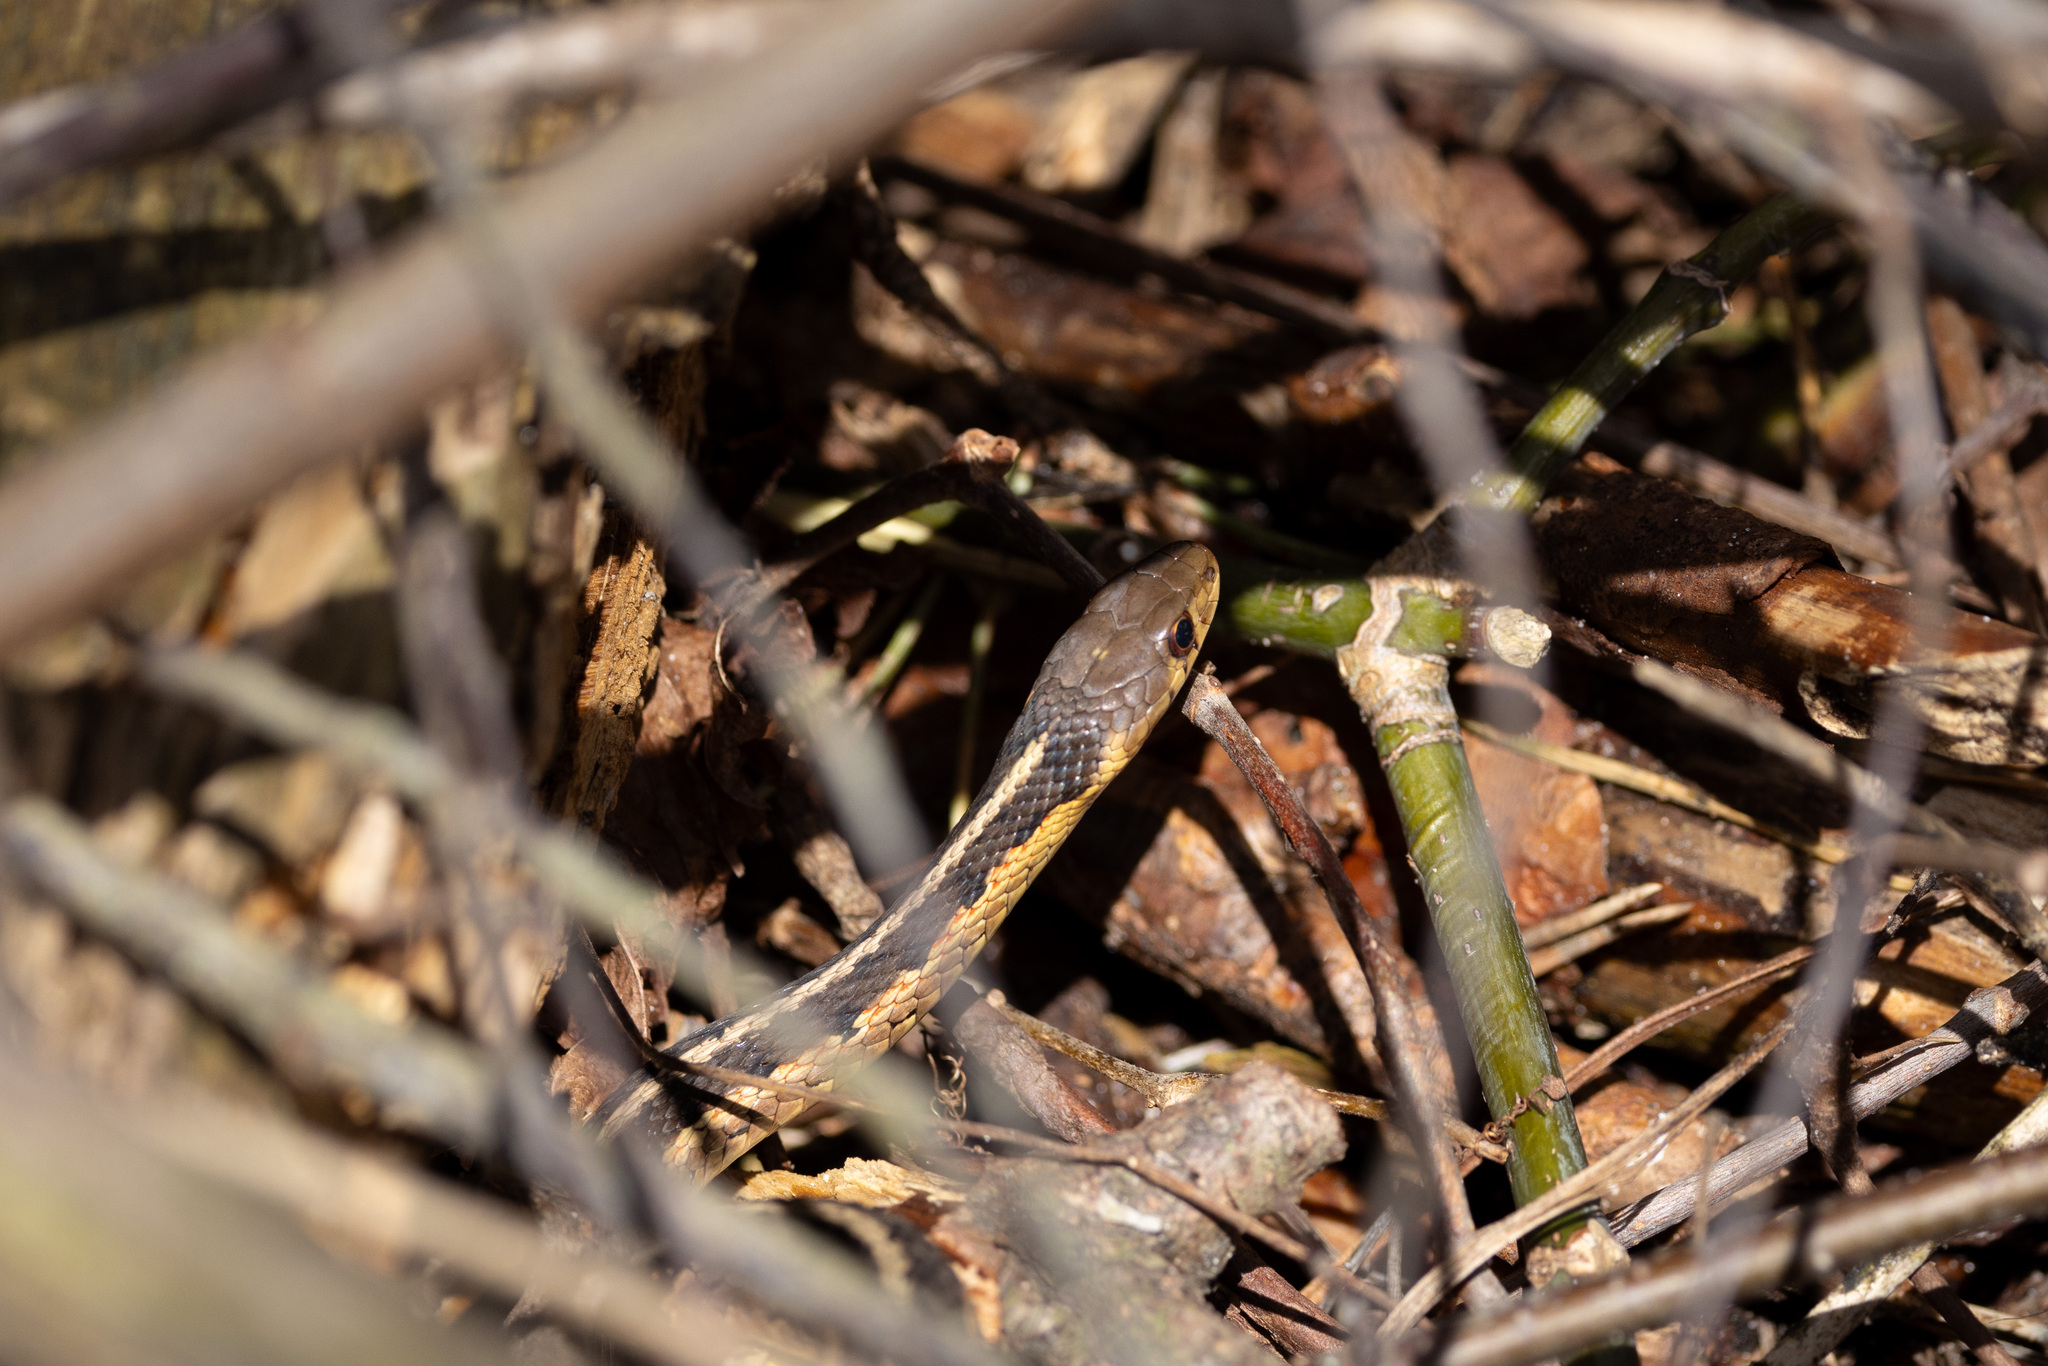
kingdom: Animalia
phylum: Chordata
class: Squamata
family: Colubridae
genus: Thamnophis
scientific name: Thamnophis sirtalis
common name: Common garter snake
